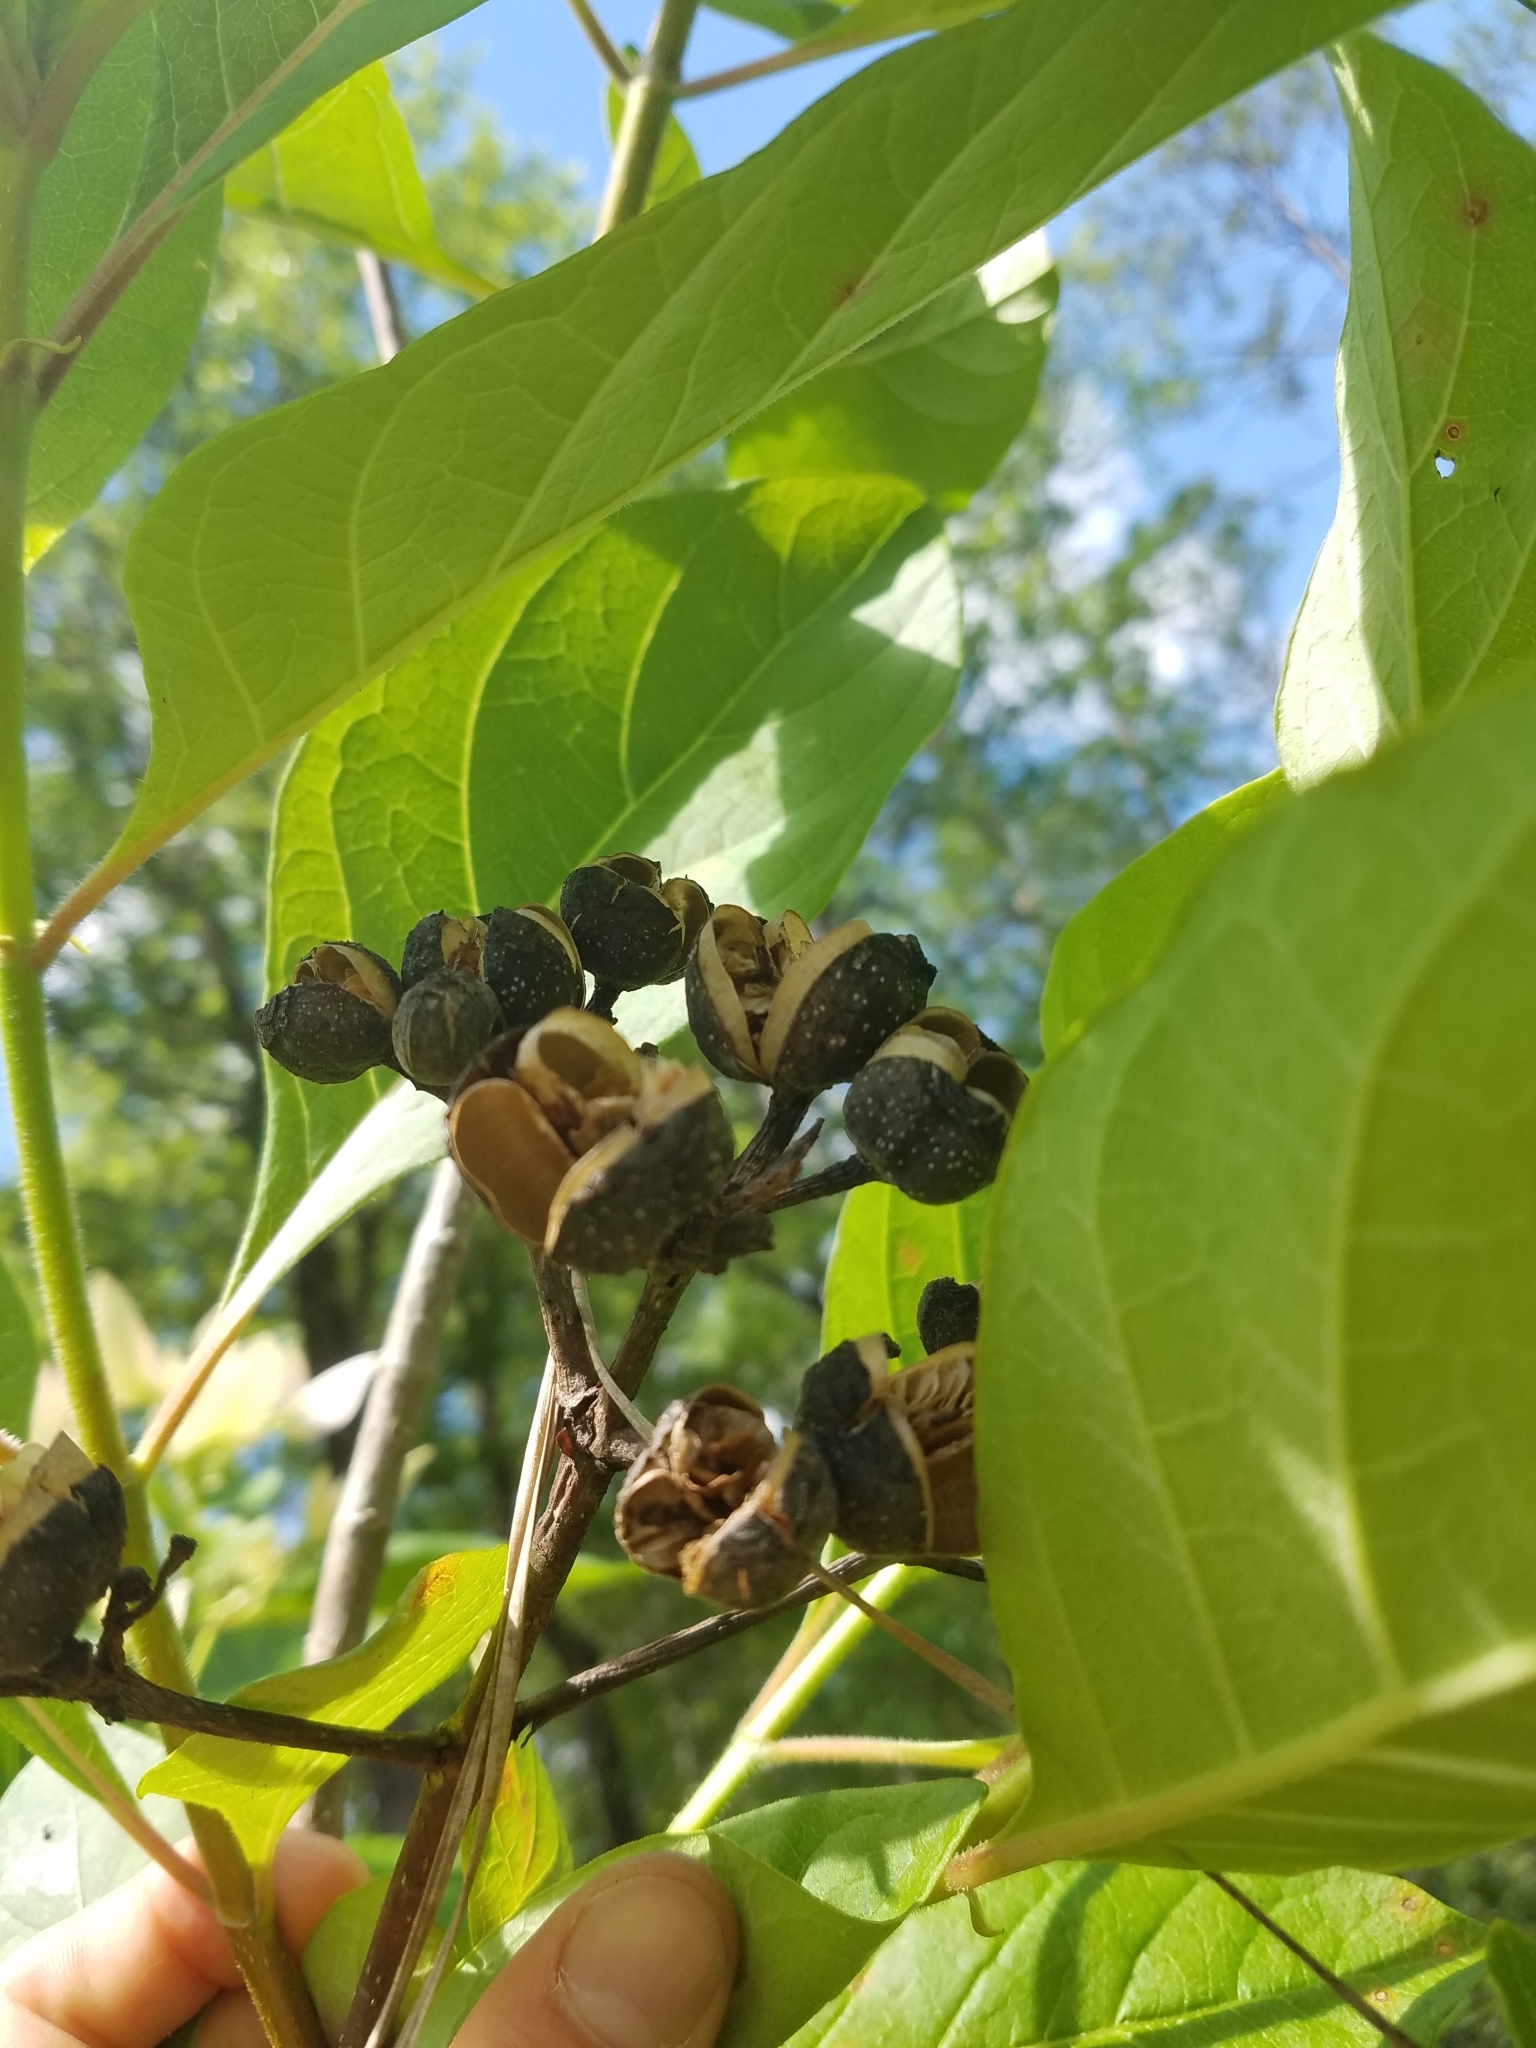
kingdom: Plantae
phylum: Tracheophyta
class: Magnoliopsida
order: Gentianales
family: Rubiaceae
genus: Pinckneya
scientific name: Pinckneya pubens
